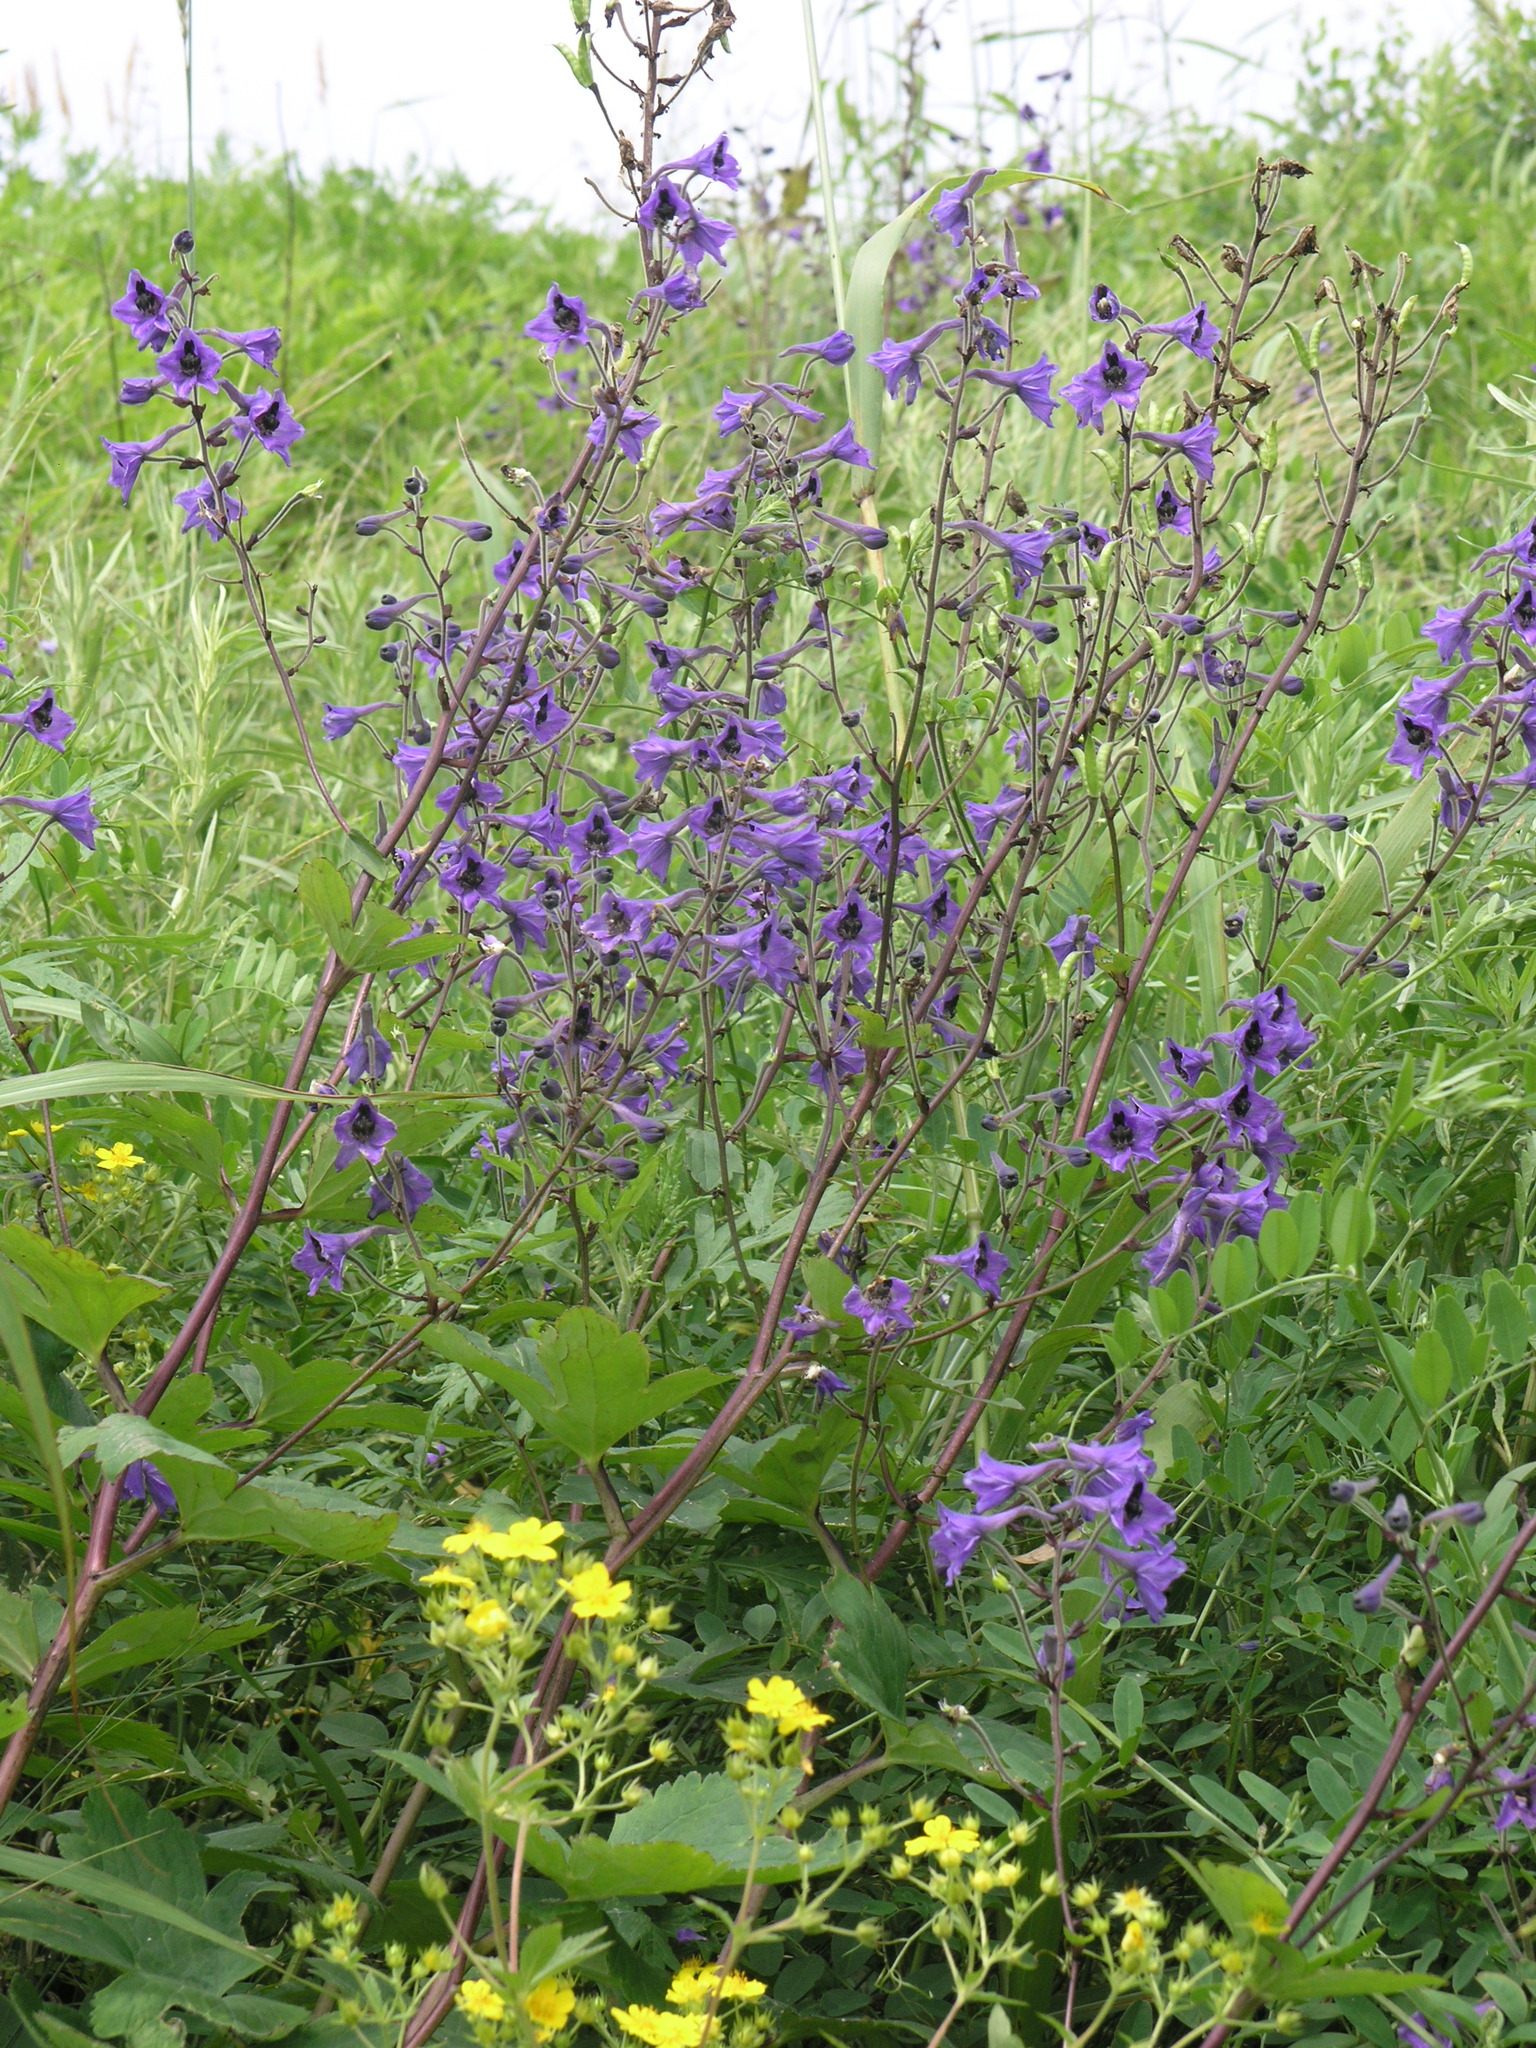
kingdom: Plantae
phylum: Tracheophyta
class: Magnoliopsida
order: Ranunculales
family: Ranunculaceae
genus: Delphinium
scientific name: Delphinium maackianum
